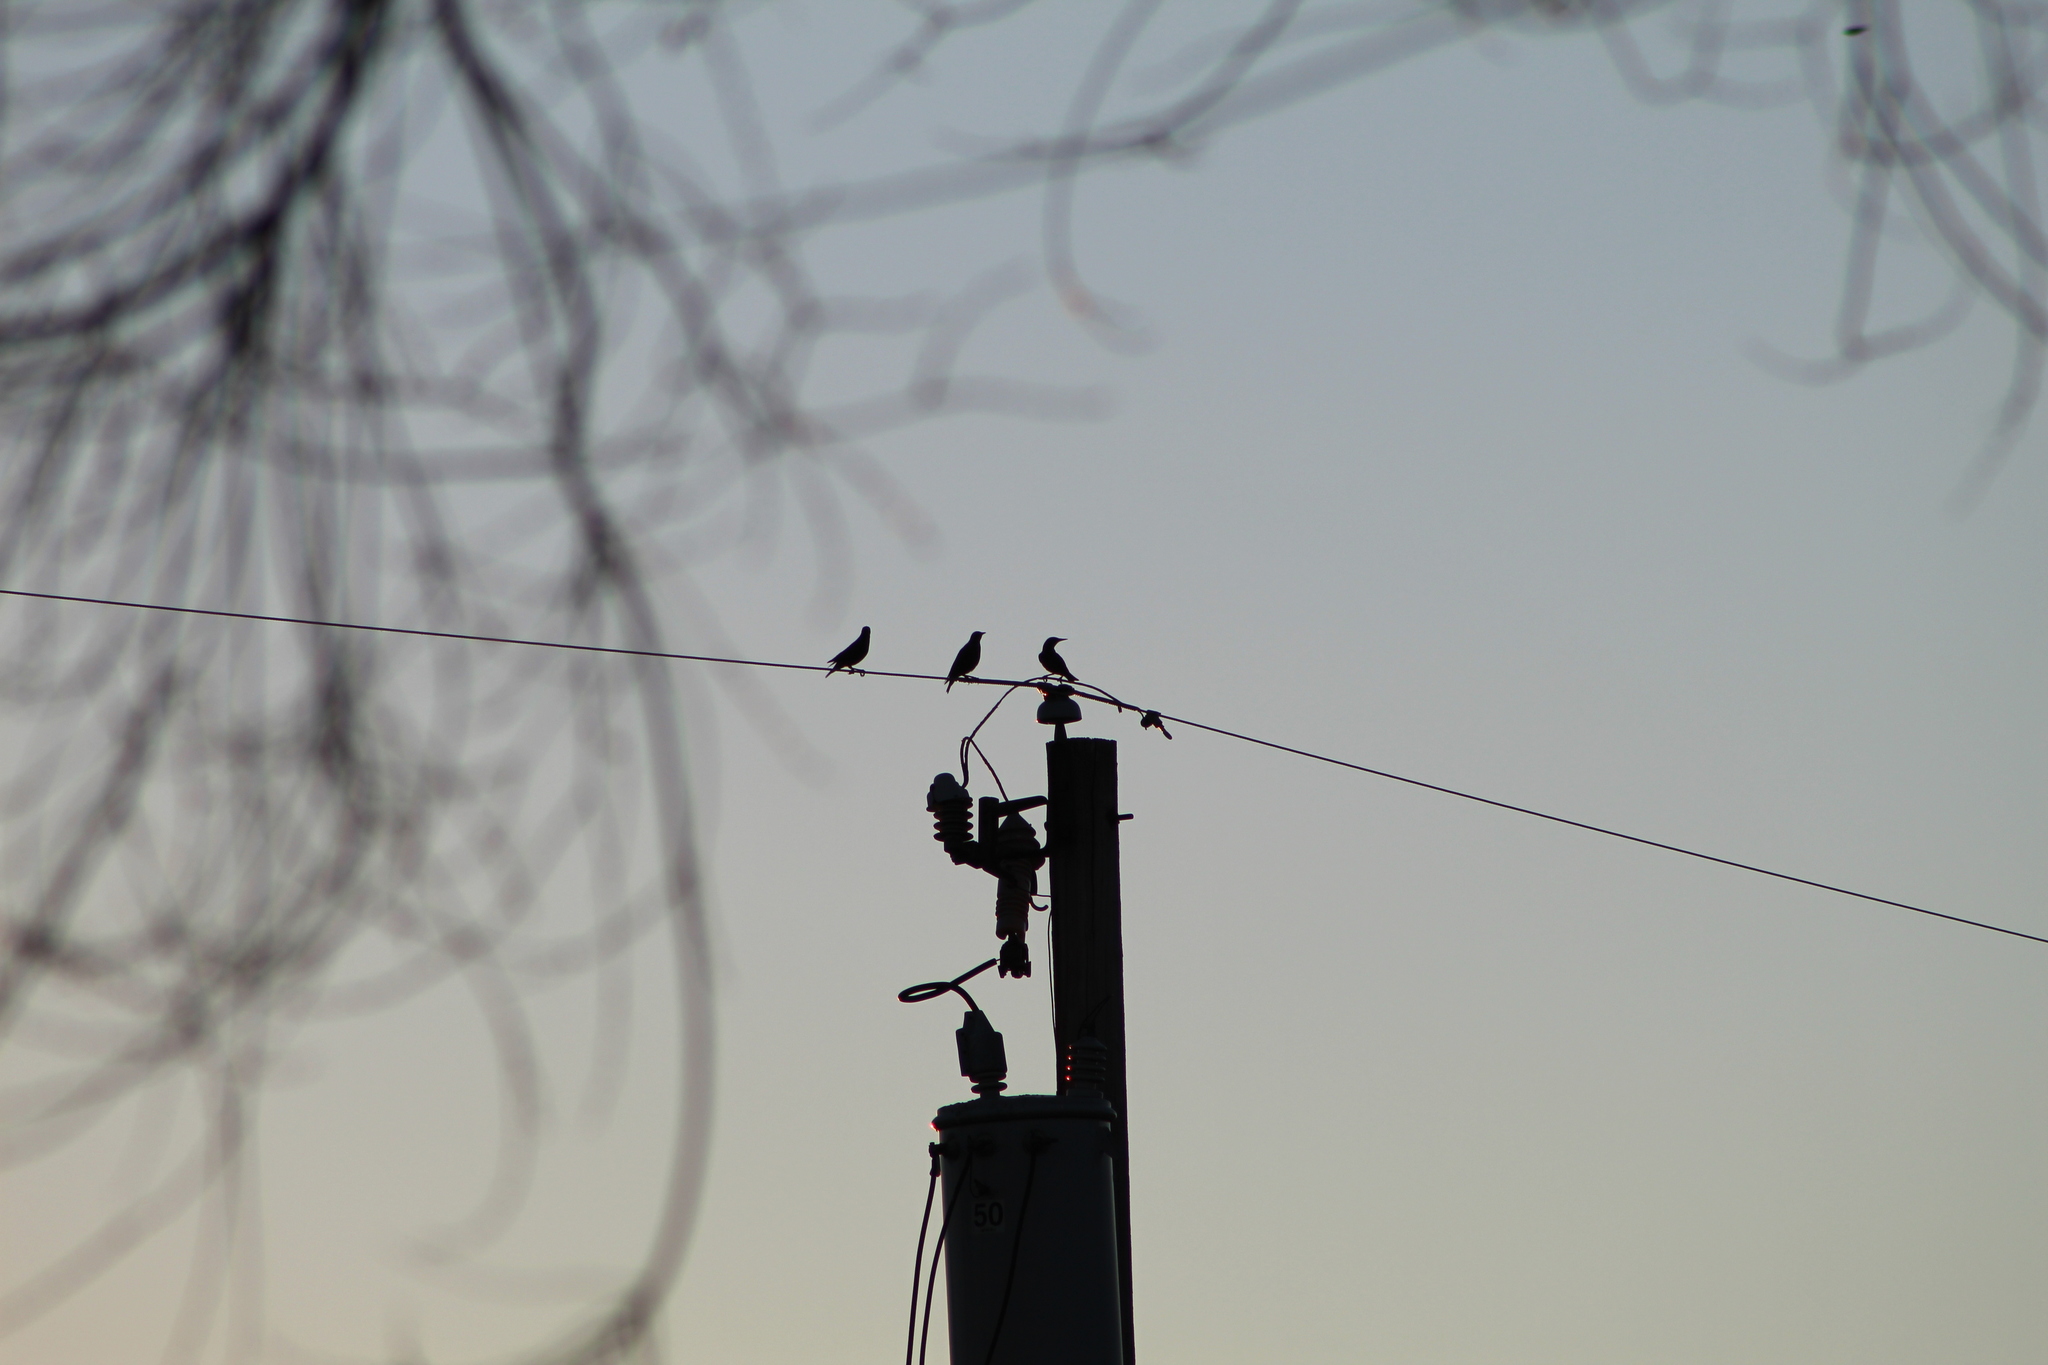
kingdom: Animalia
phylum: Chordata
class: Aves
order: Passeriformes
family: Sturnidae
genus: Sturnus
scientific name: Sturnus vulgaris
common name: Common starling
